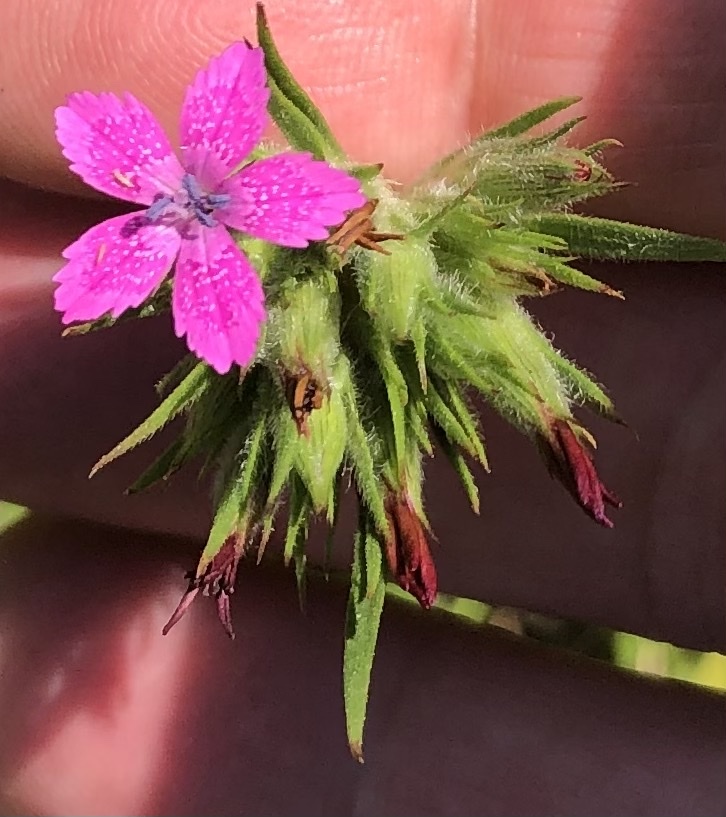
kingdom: Plantae
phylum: Tracheophyta
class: Magnoliopsida
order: Caryophyllales
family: Caryophyllaceae
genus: Dianthus
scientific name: Dianthus armeria
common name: Deptford pink
